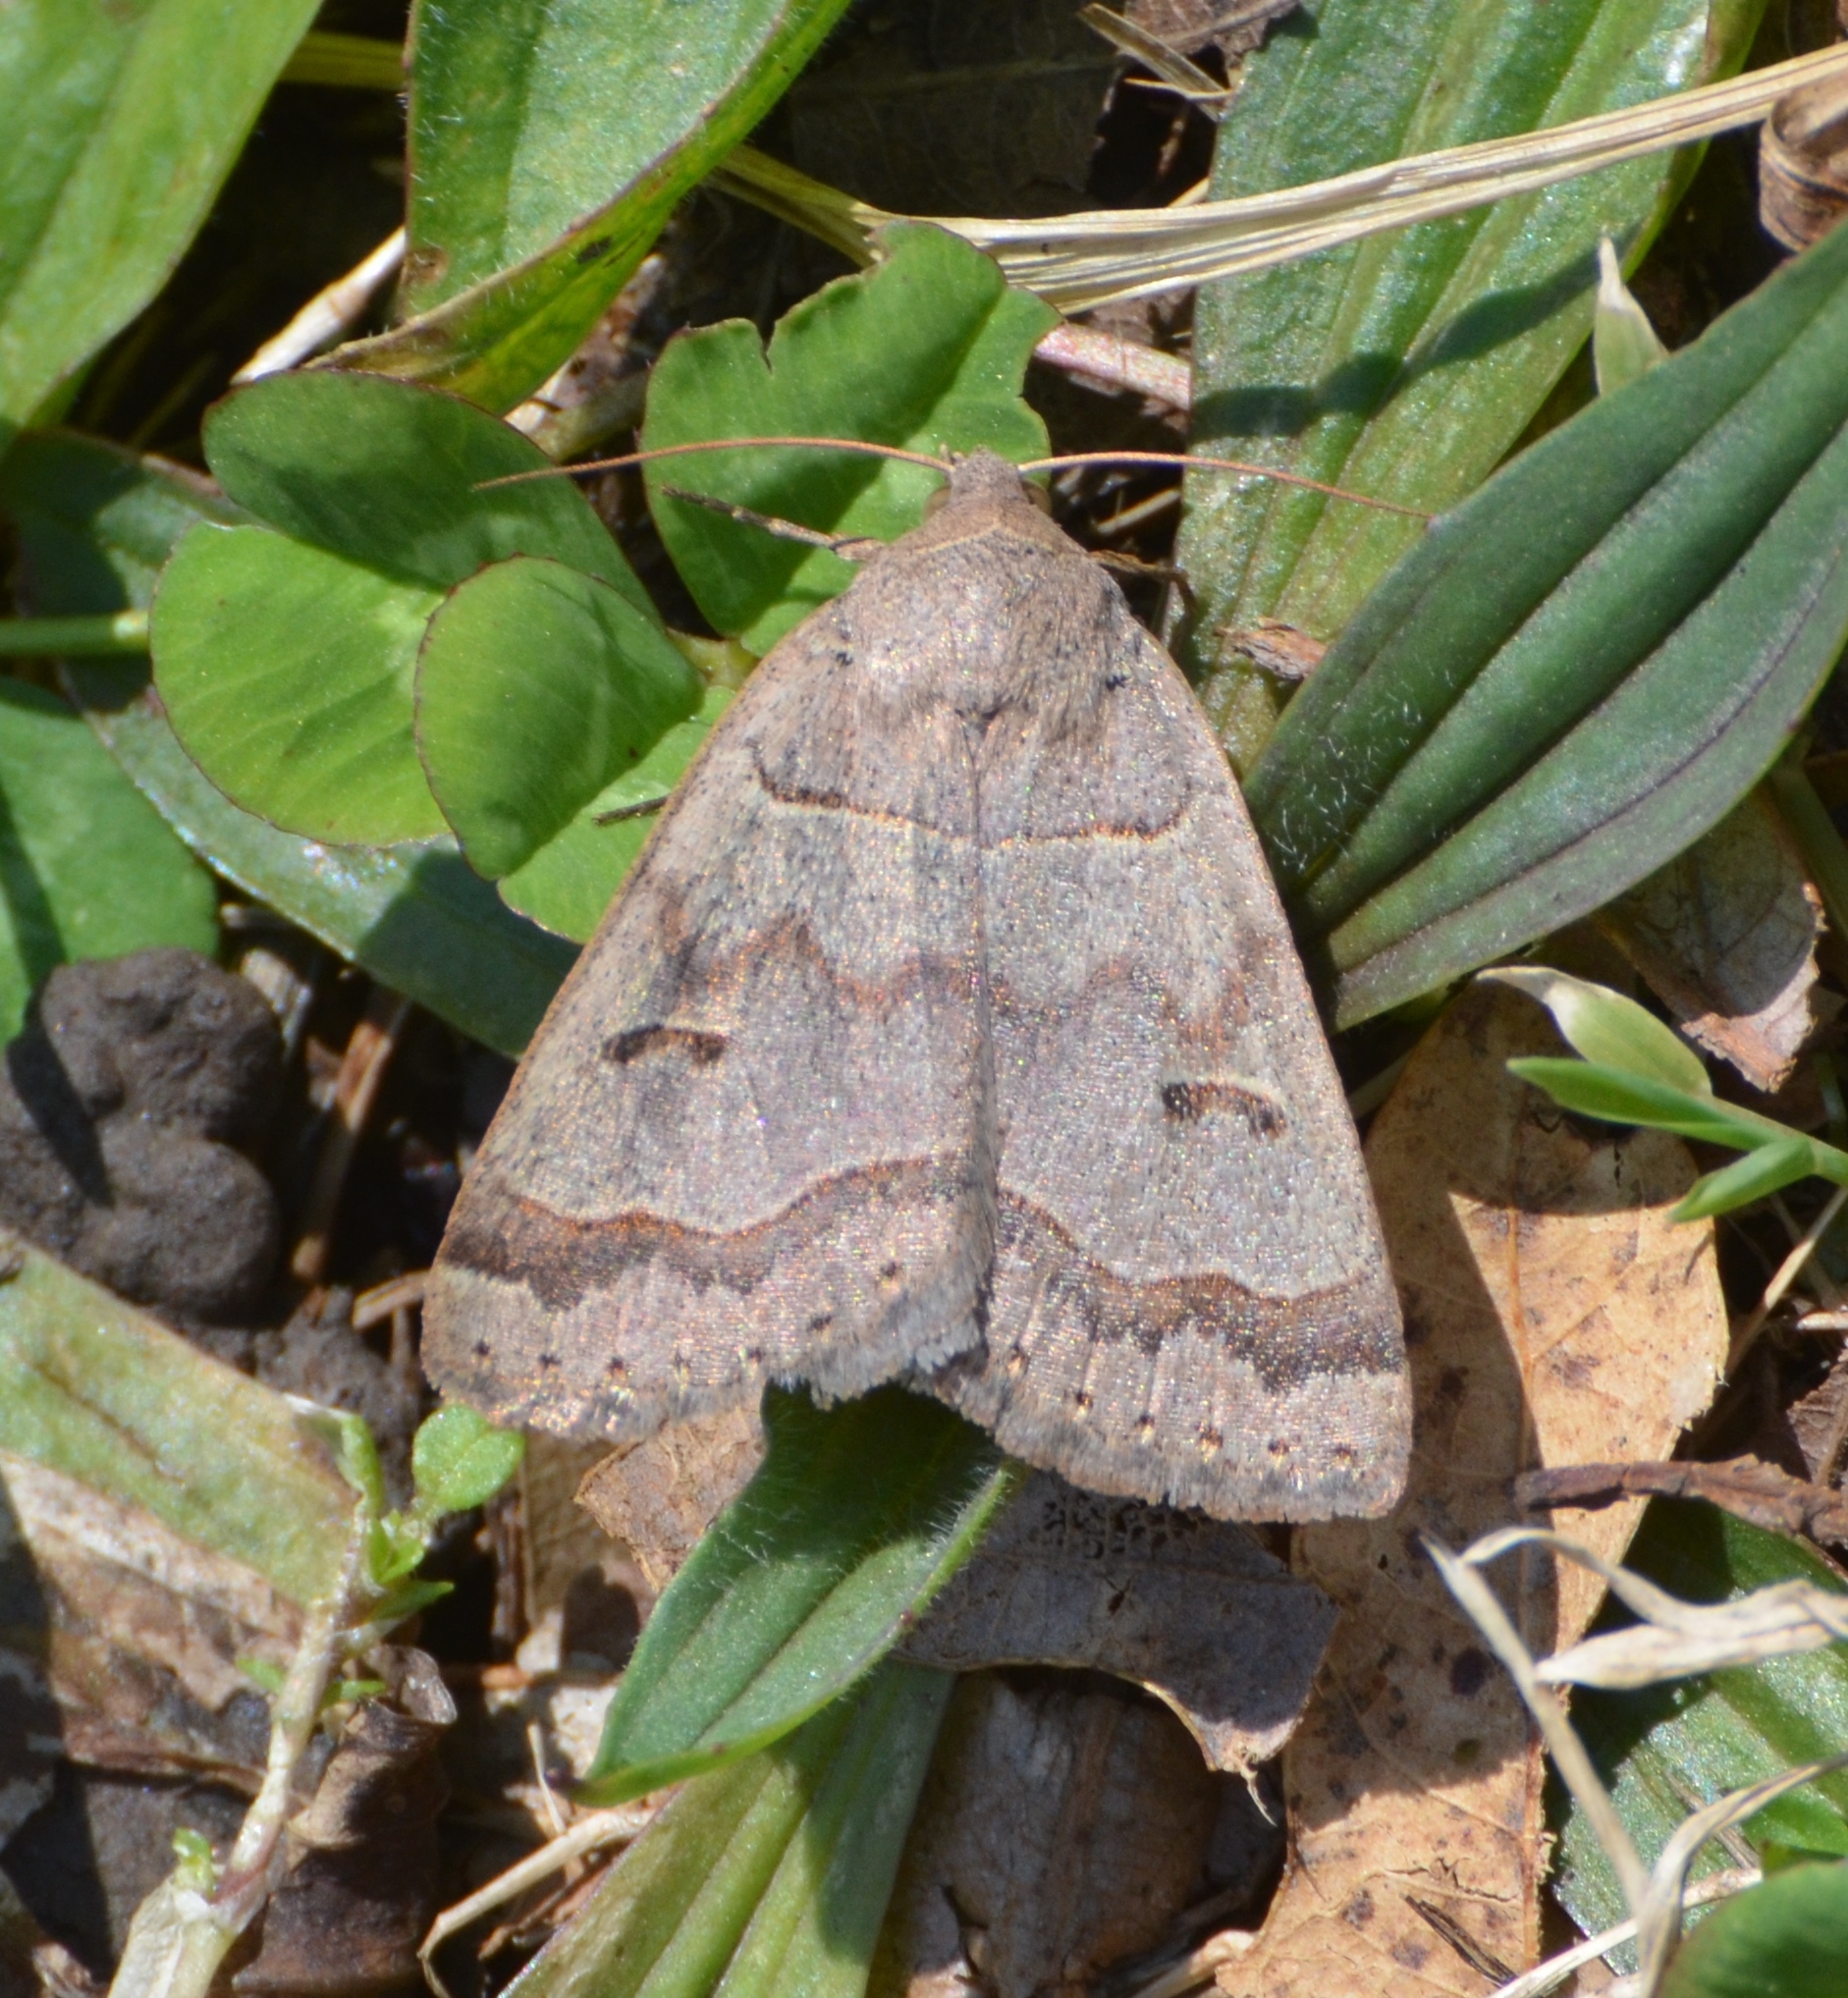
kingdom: Animalia
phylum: Arthropoda
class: Insecta
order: Lepidoptera
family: Erebidae
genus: Phoberia
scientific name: Phoberia atomaris
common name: Common oak moth
